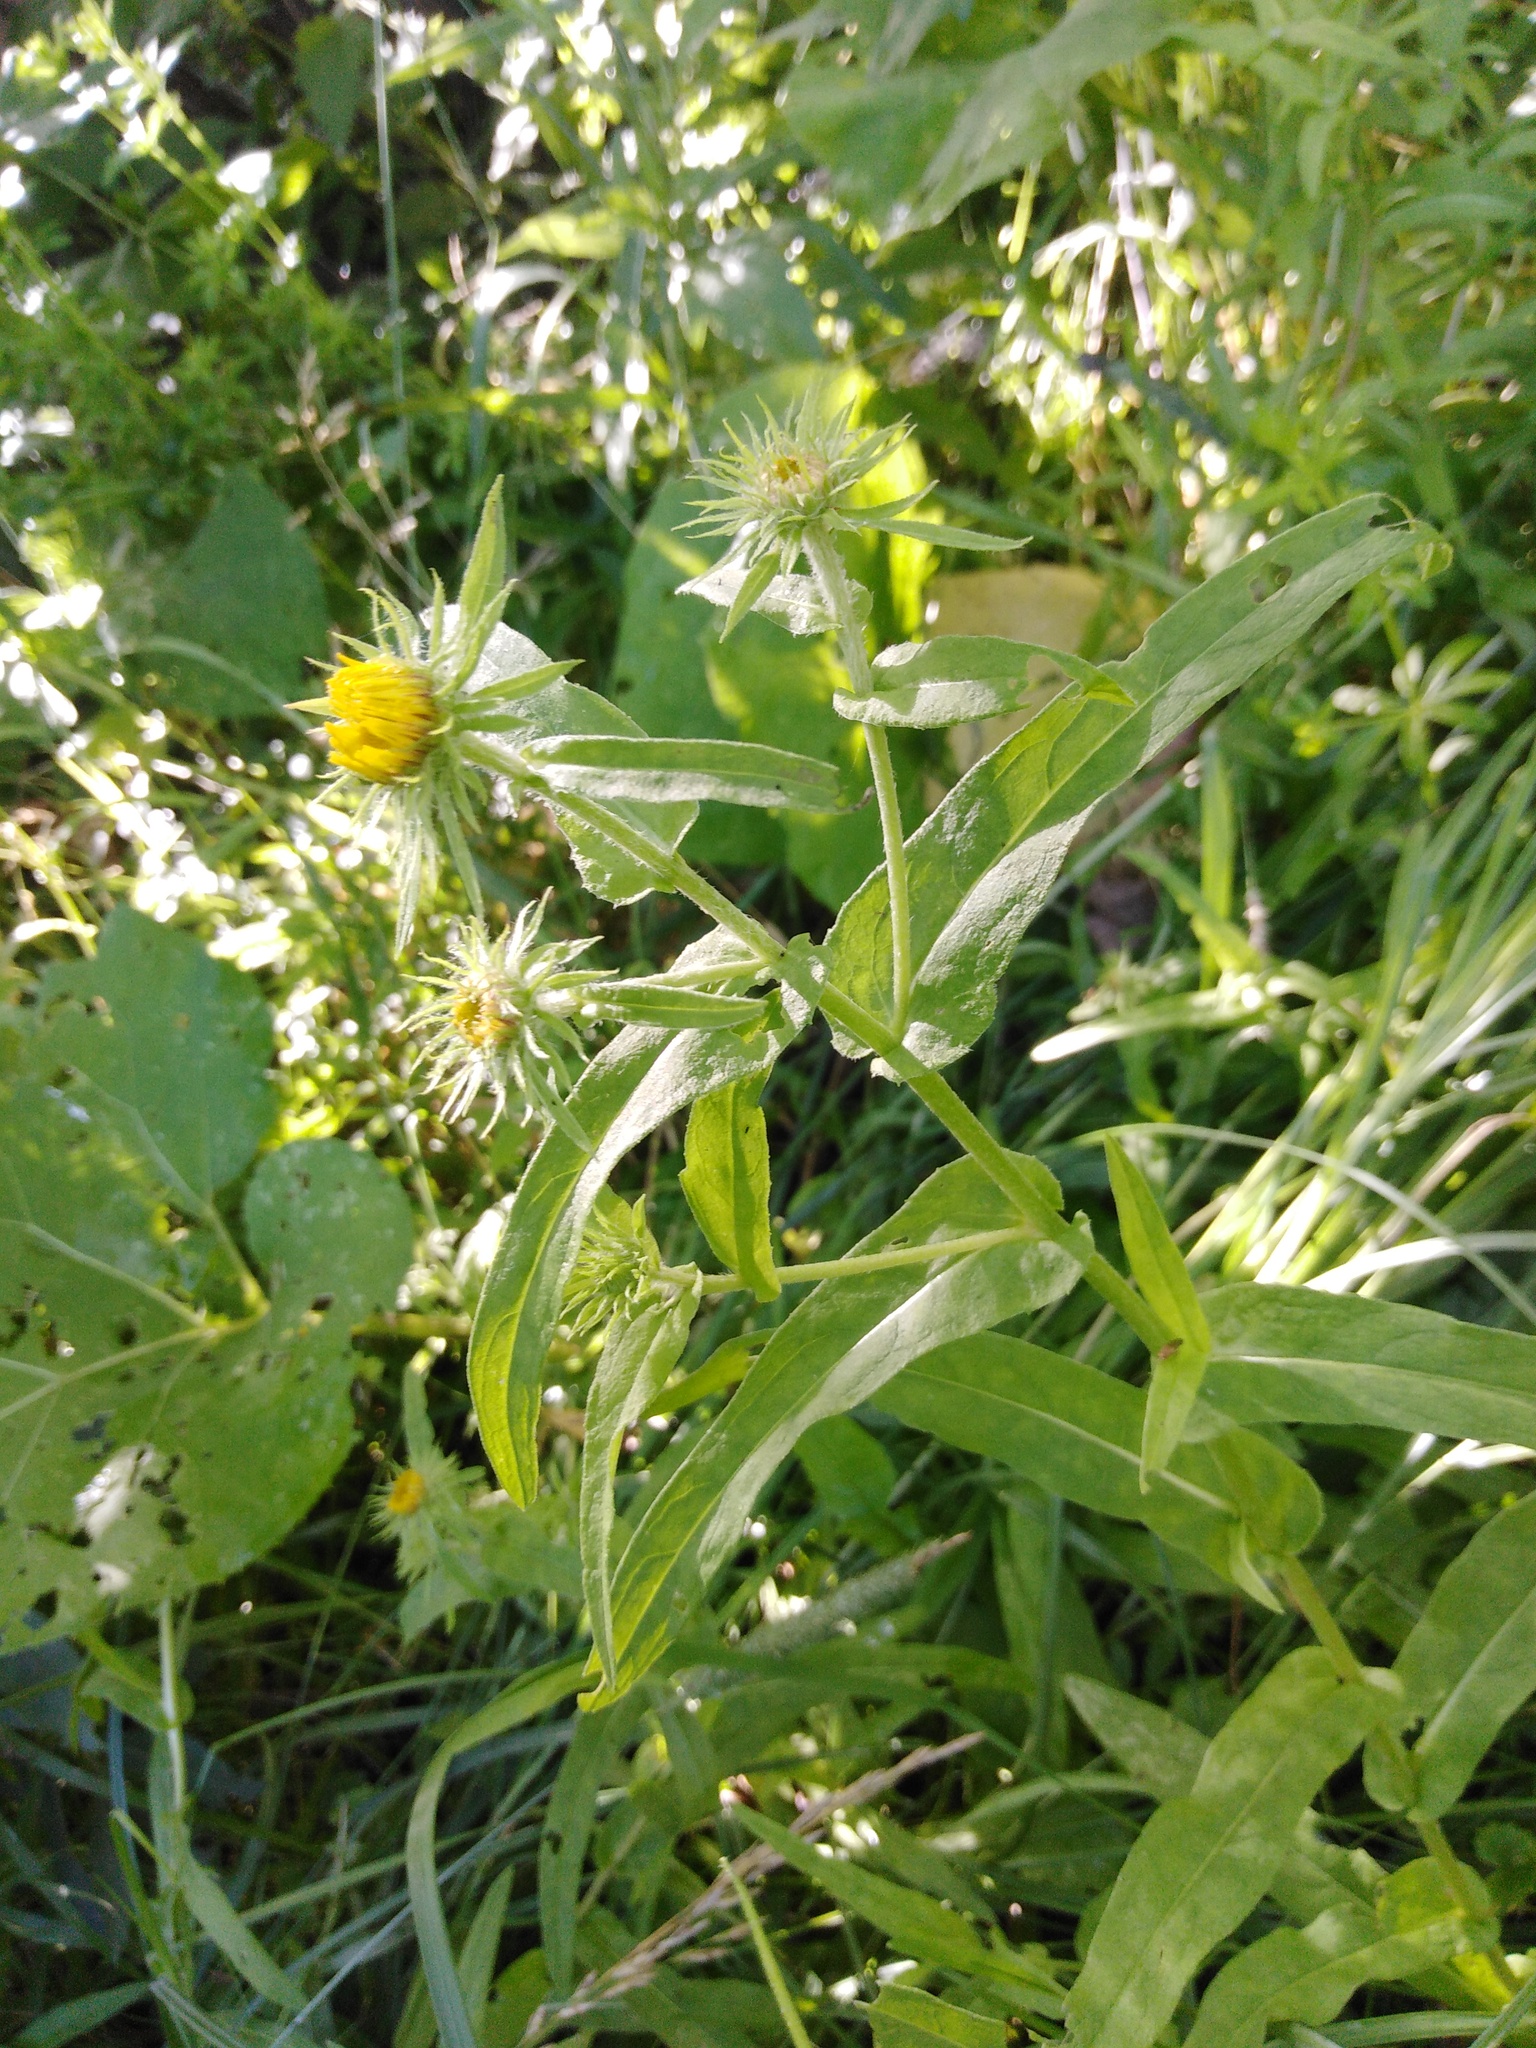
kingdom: Plantae
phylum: Tracheophyta
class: Magnoliopsida
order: Asterales
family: Asteraceae
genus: Pentanema
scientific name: Pentanema britannicum
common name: British elecampane
